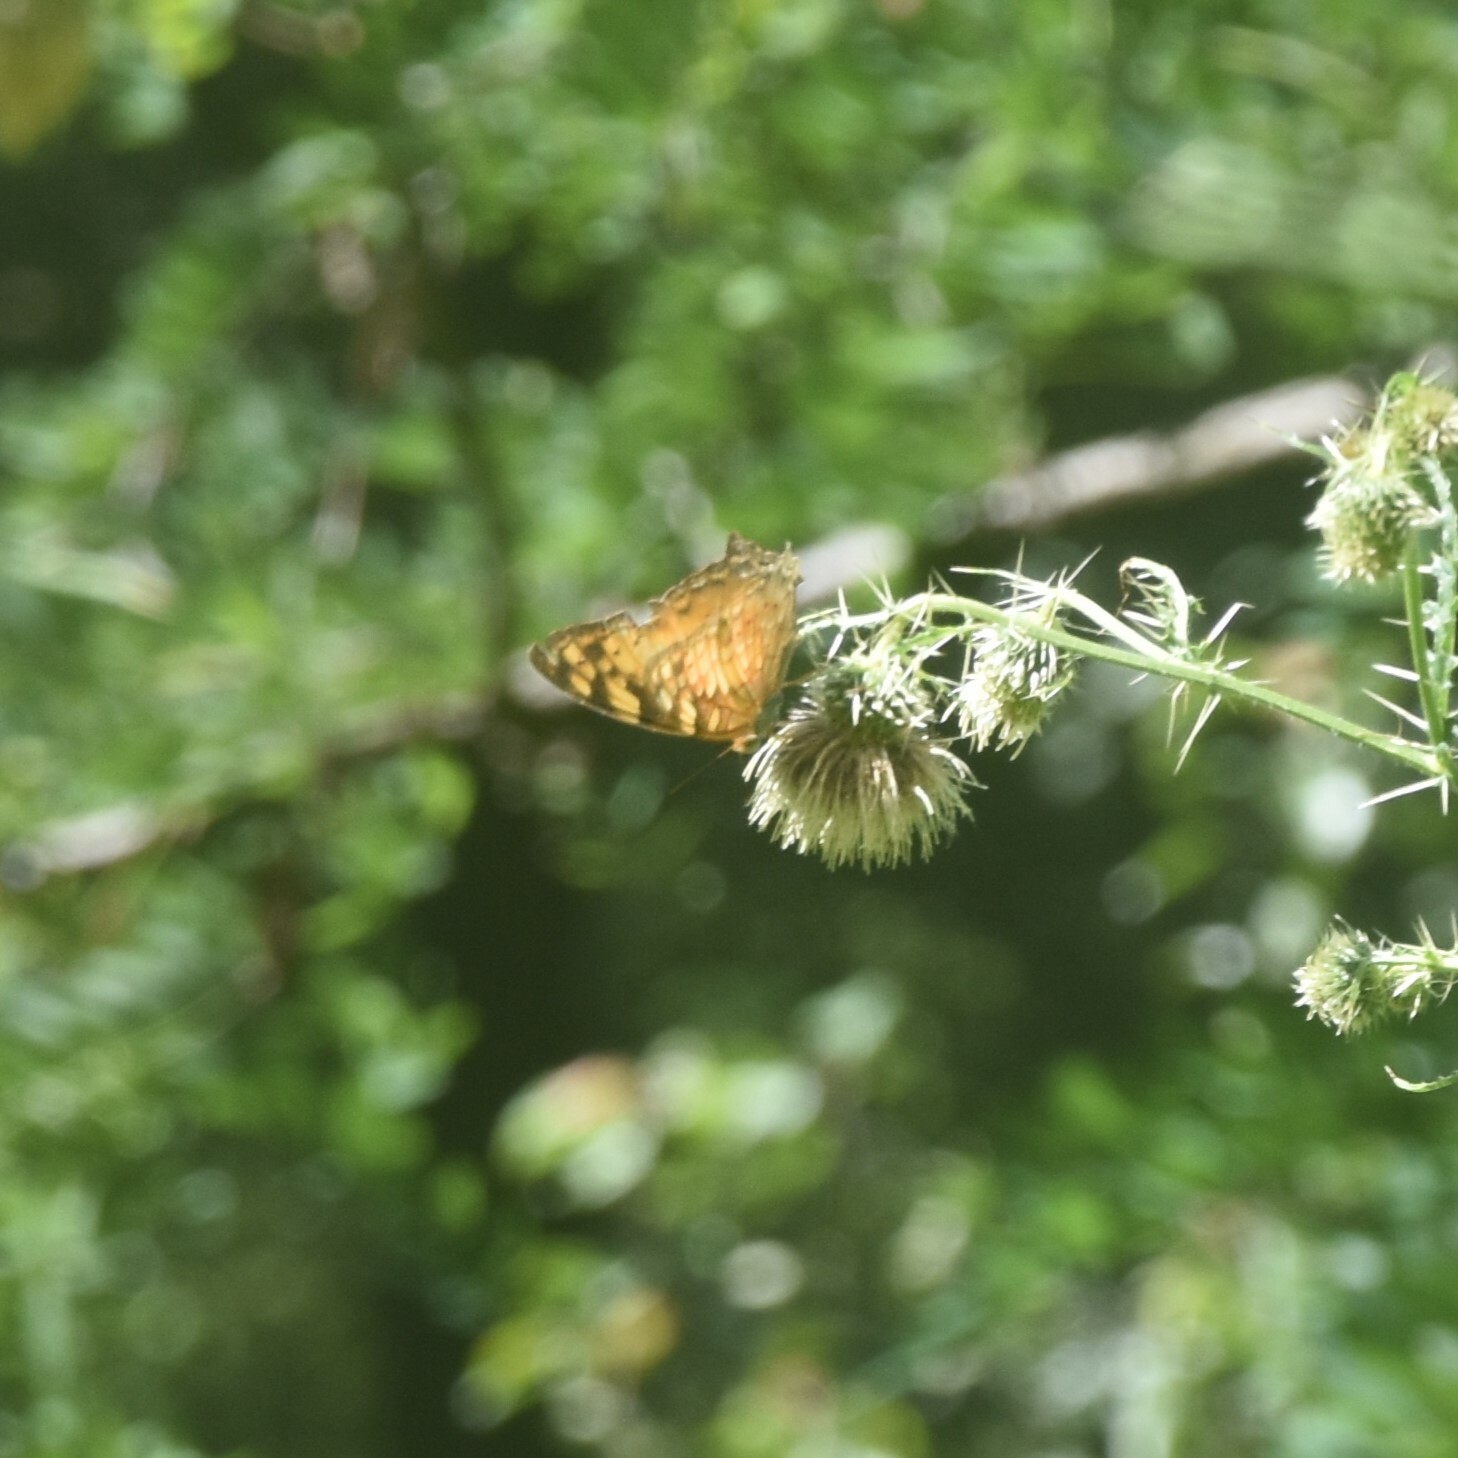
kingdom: Animalia
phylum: Arthropoda
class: Insecta
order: Lepidoptera
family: Nymphalidae
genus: Vagrans
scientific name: Vagrans egista
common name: Tailed rustic
